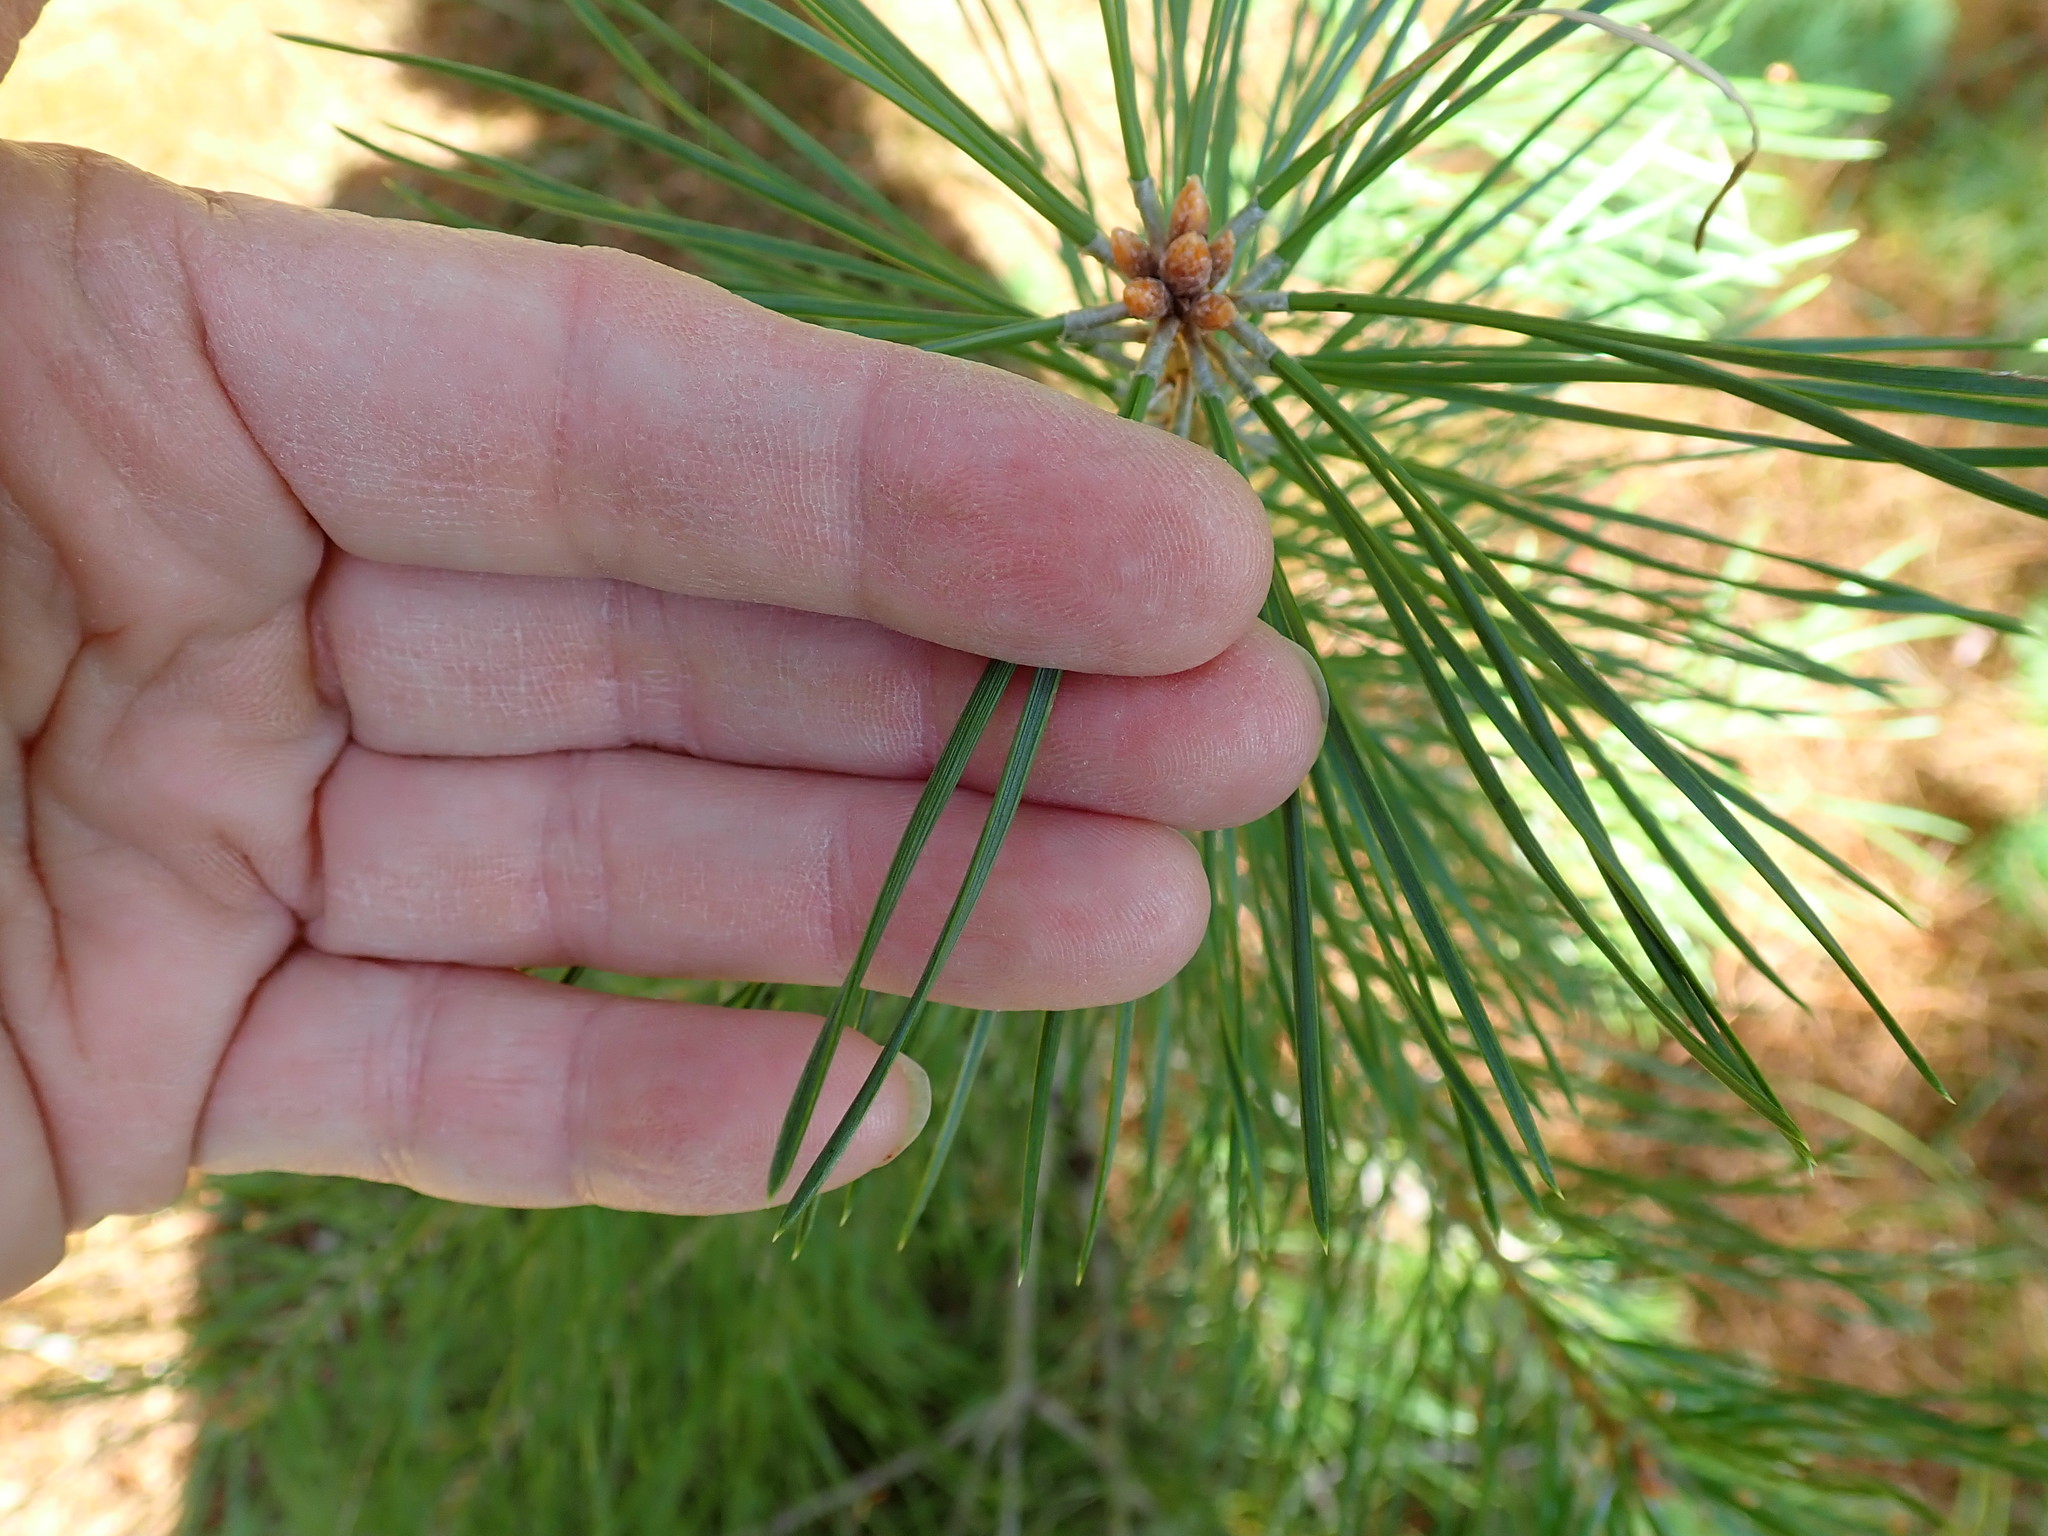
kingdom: Plantae
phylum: Tracheophyta
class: Pinopsida
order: Pinales
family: Pinaceae
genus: Pinus
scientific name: Pinus resinosa
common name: Norway pine
